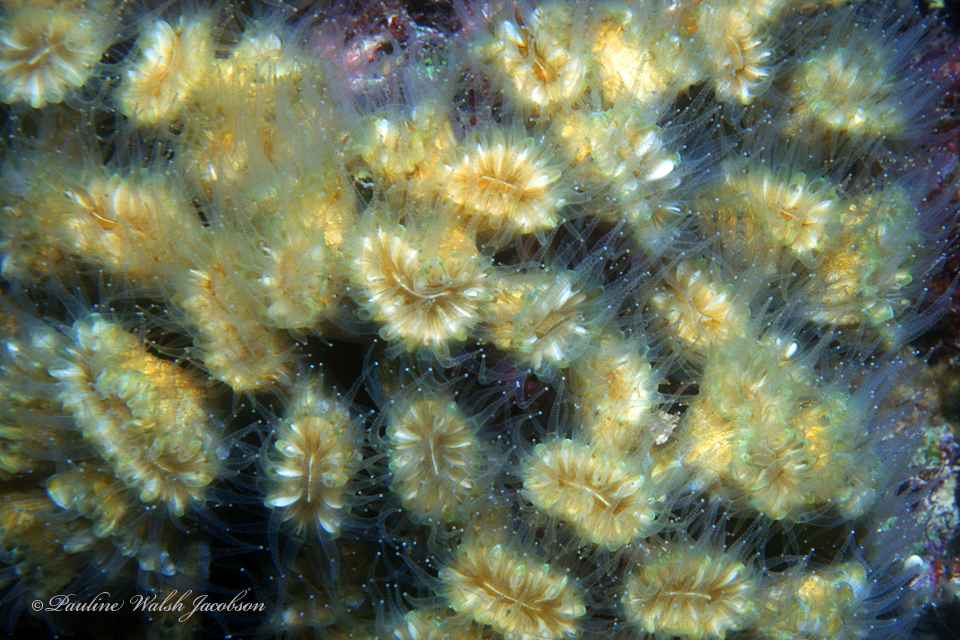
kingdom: Animalia
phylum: Cnidaria
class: Anthozoa
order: Scleractinia
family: Meandrinidae
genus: Eusmilia
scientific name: Eusmilia fastigiata
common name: Smooth flower coral
